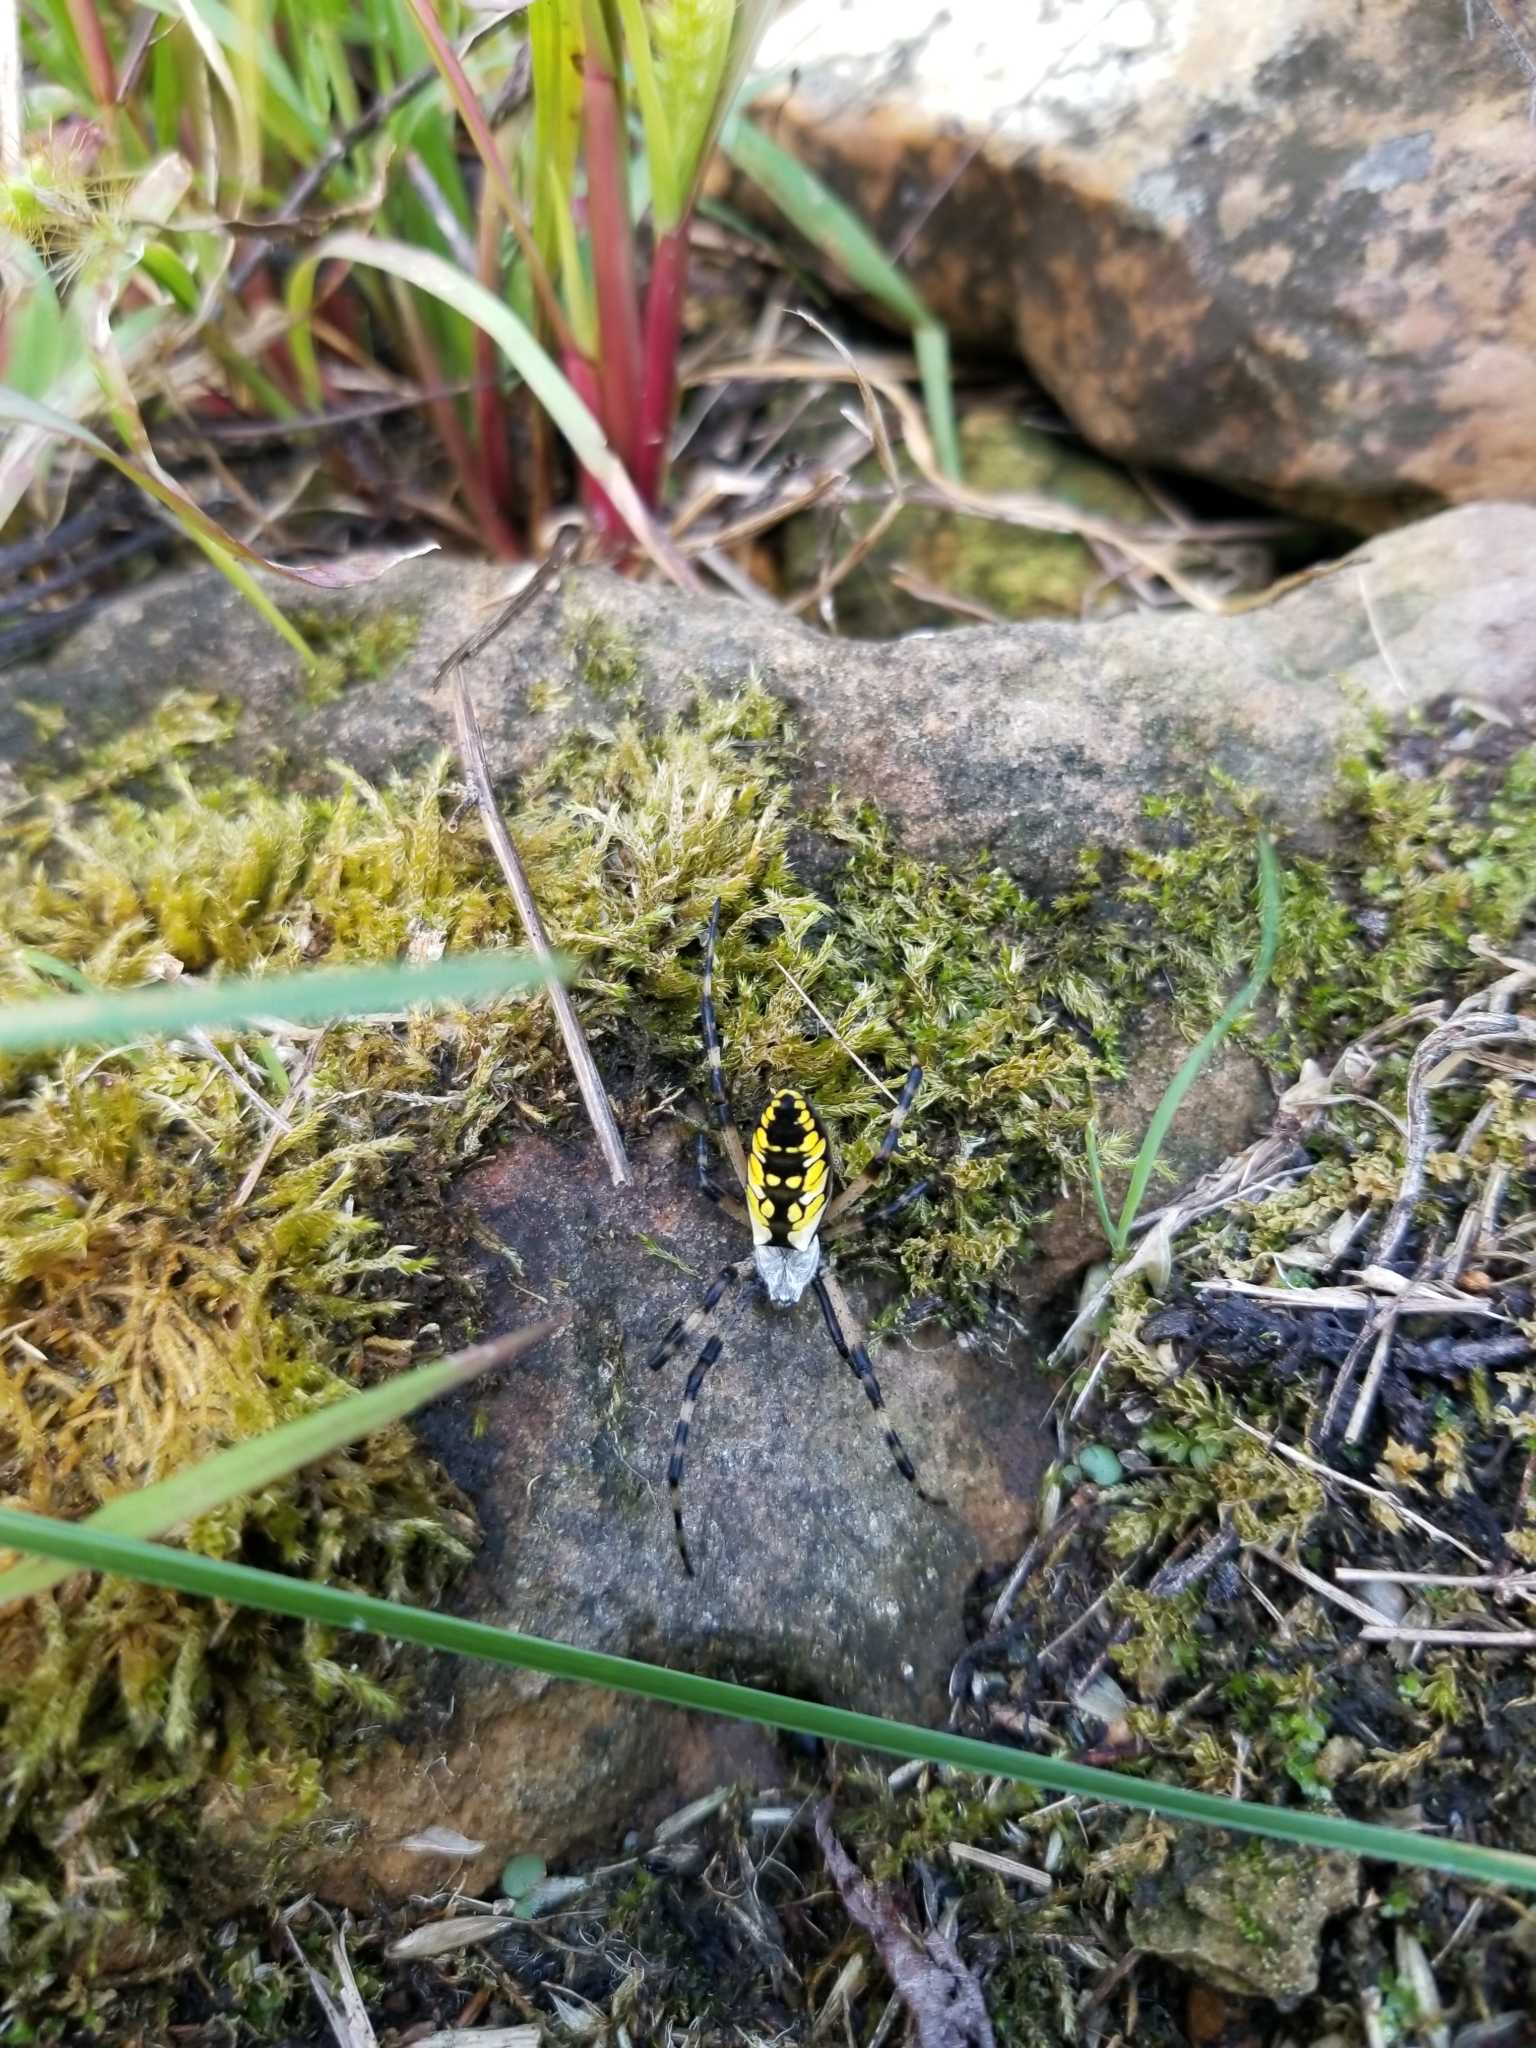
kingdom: Animalia
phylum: Arthropoda
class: Arachnida
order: Araneae
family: Araneidae
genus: Argiope
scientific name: Argiope aurantia
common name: Orb weavers
